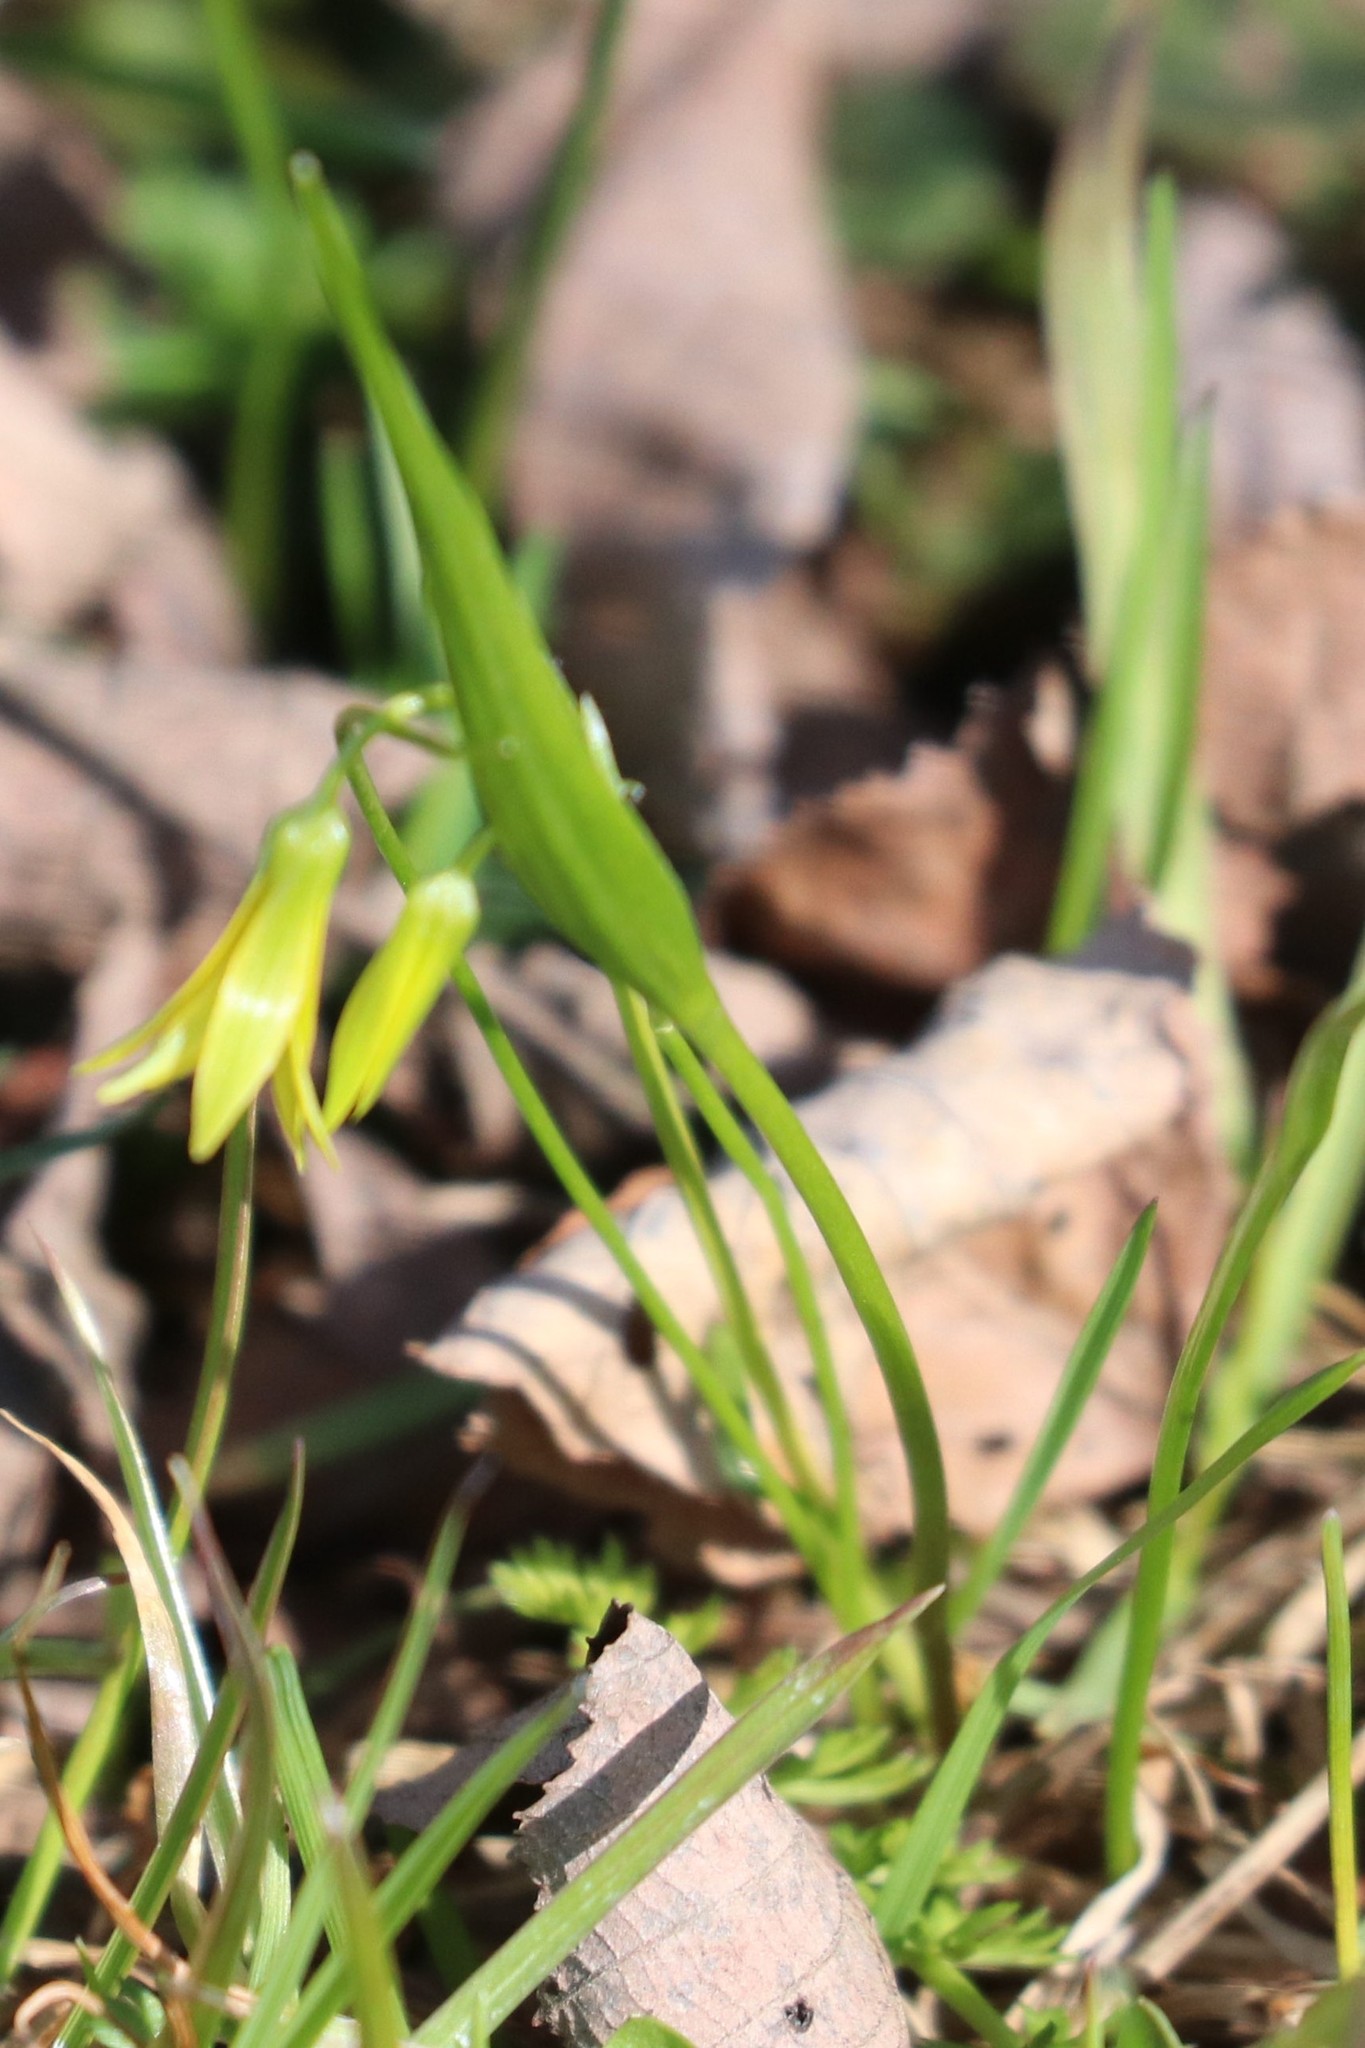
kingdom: Plantae
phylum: Tracheophyta
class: Liliopsida
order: Liliales
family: Liliaceae
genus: Gagea
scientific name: Gagea minima
